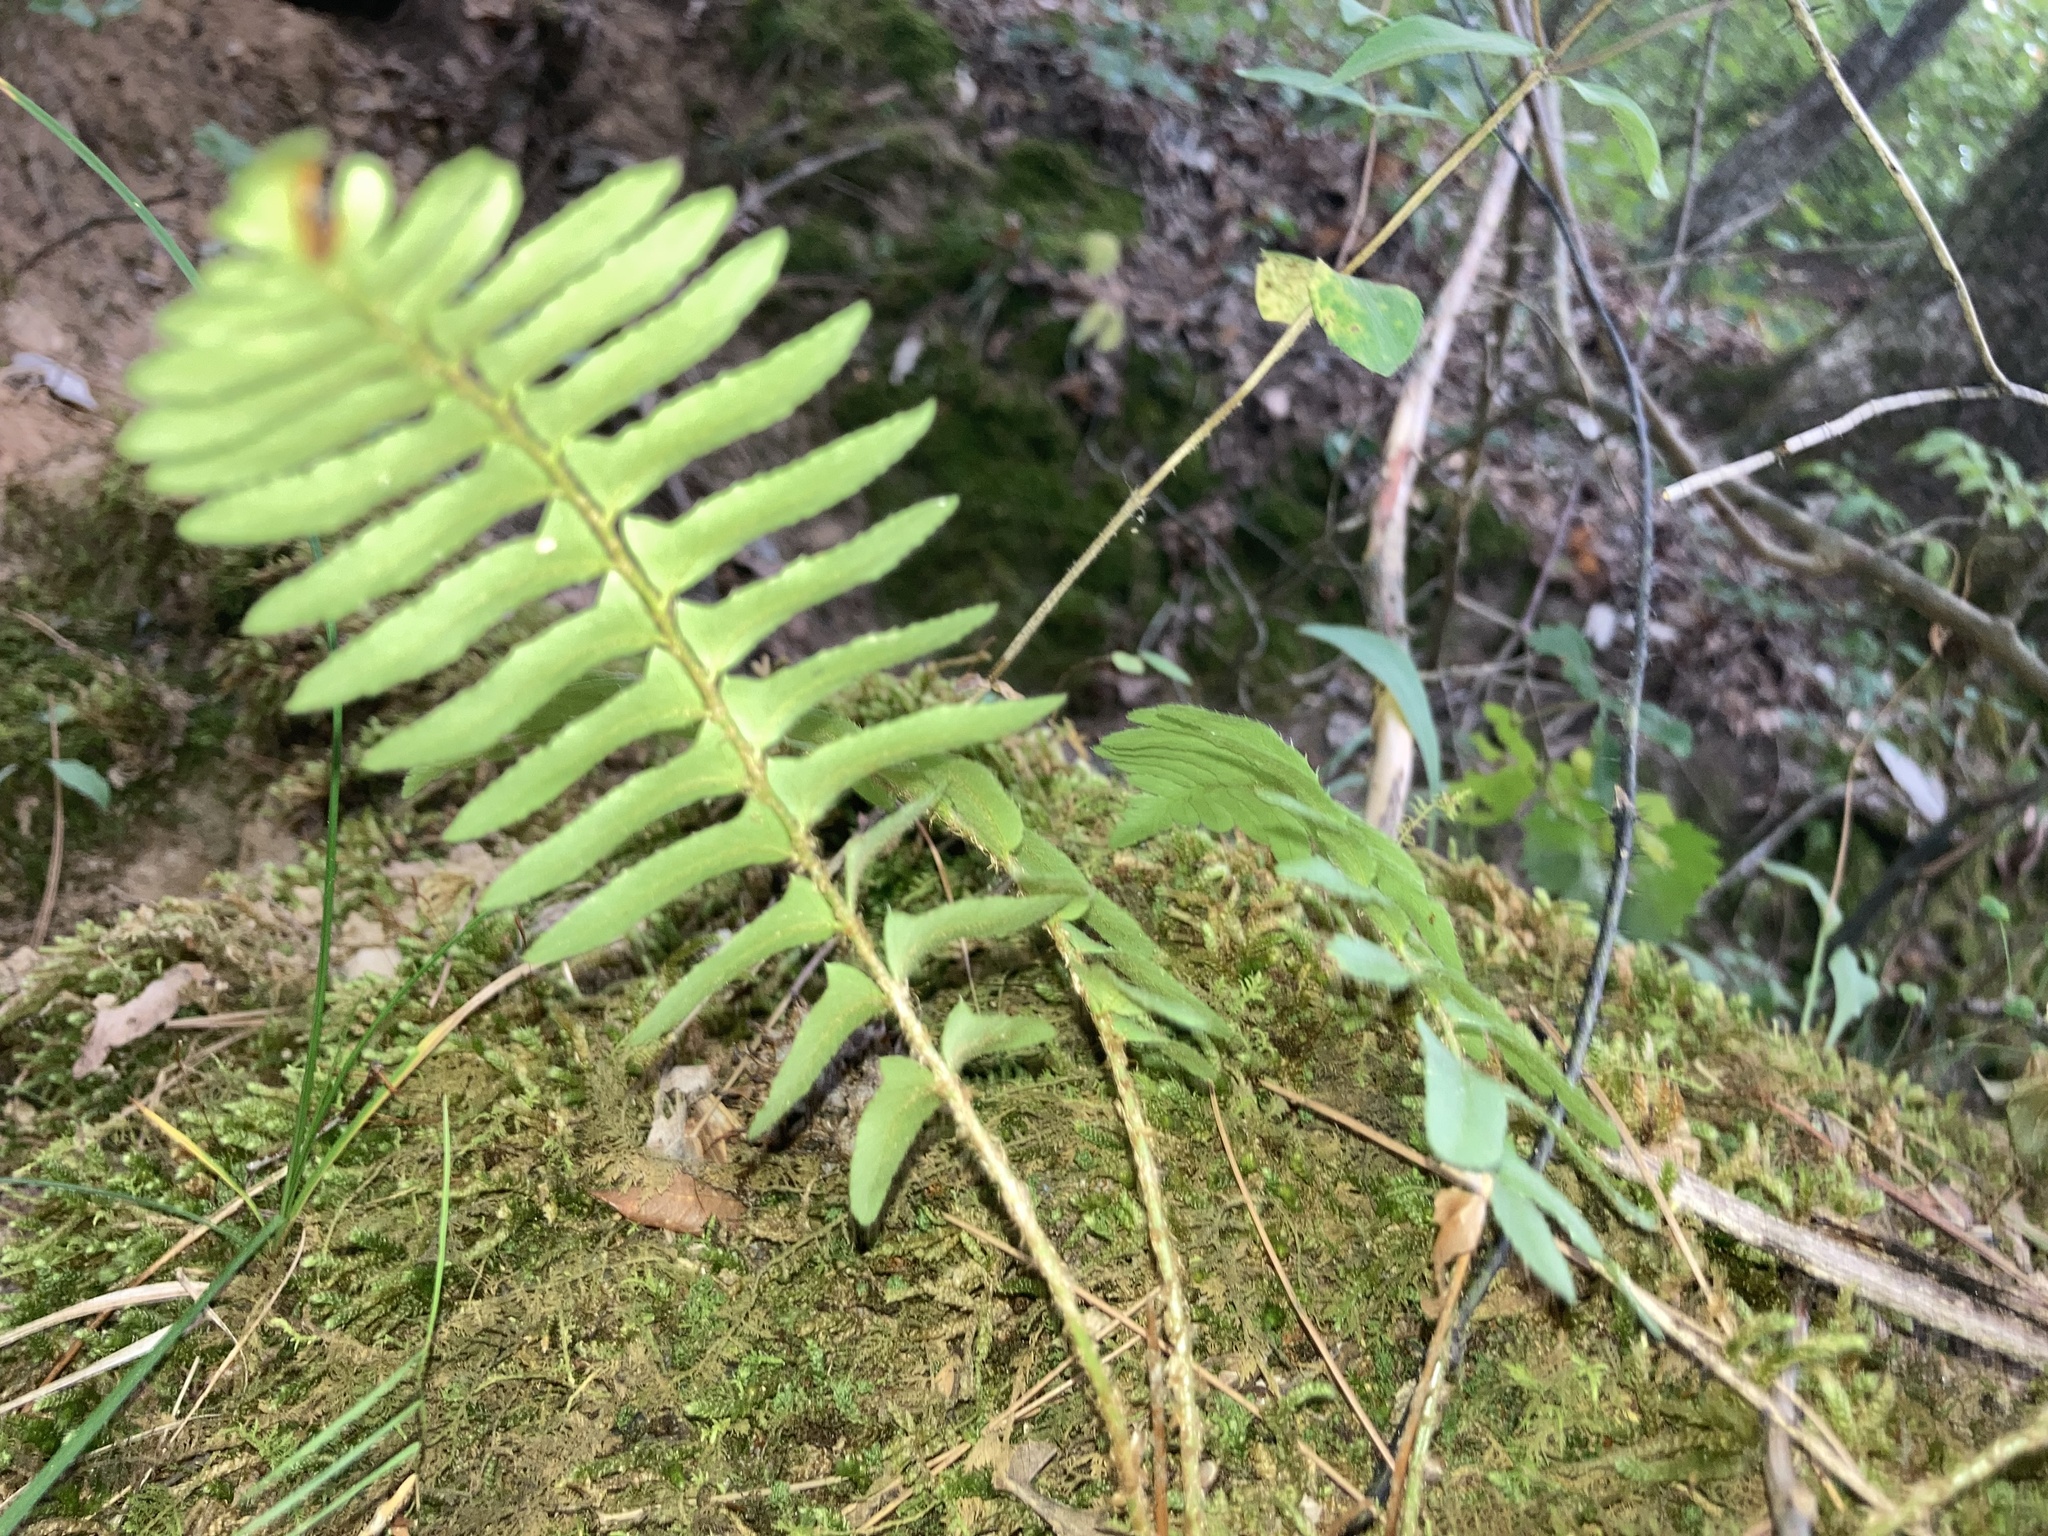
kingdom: Plantae
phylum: Tracheophyta
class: Polypodiopsida
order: Polypodiales
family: Dryopteridaceae
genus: Polystichum
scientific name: Polystichum acrostichoides
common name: Christmas fern
